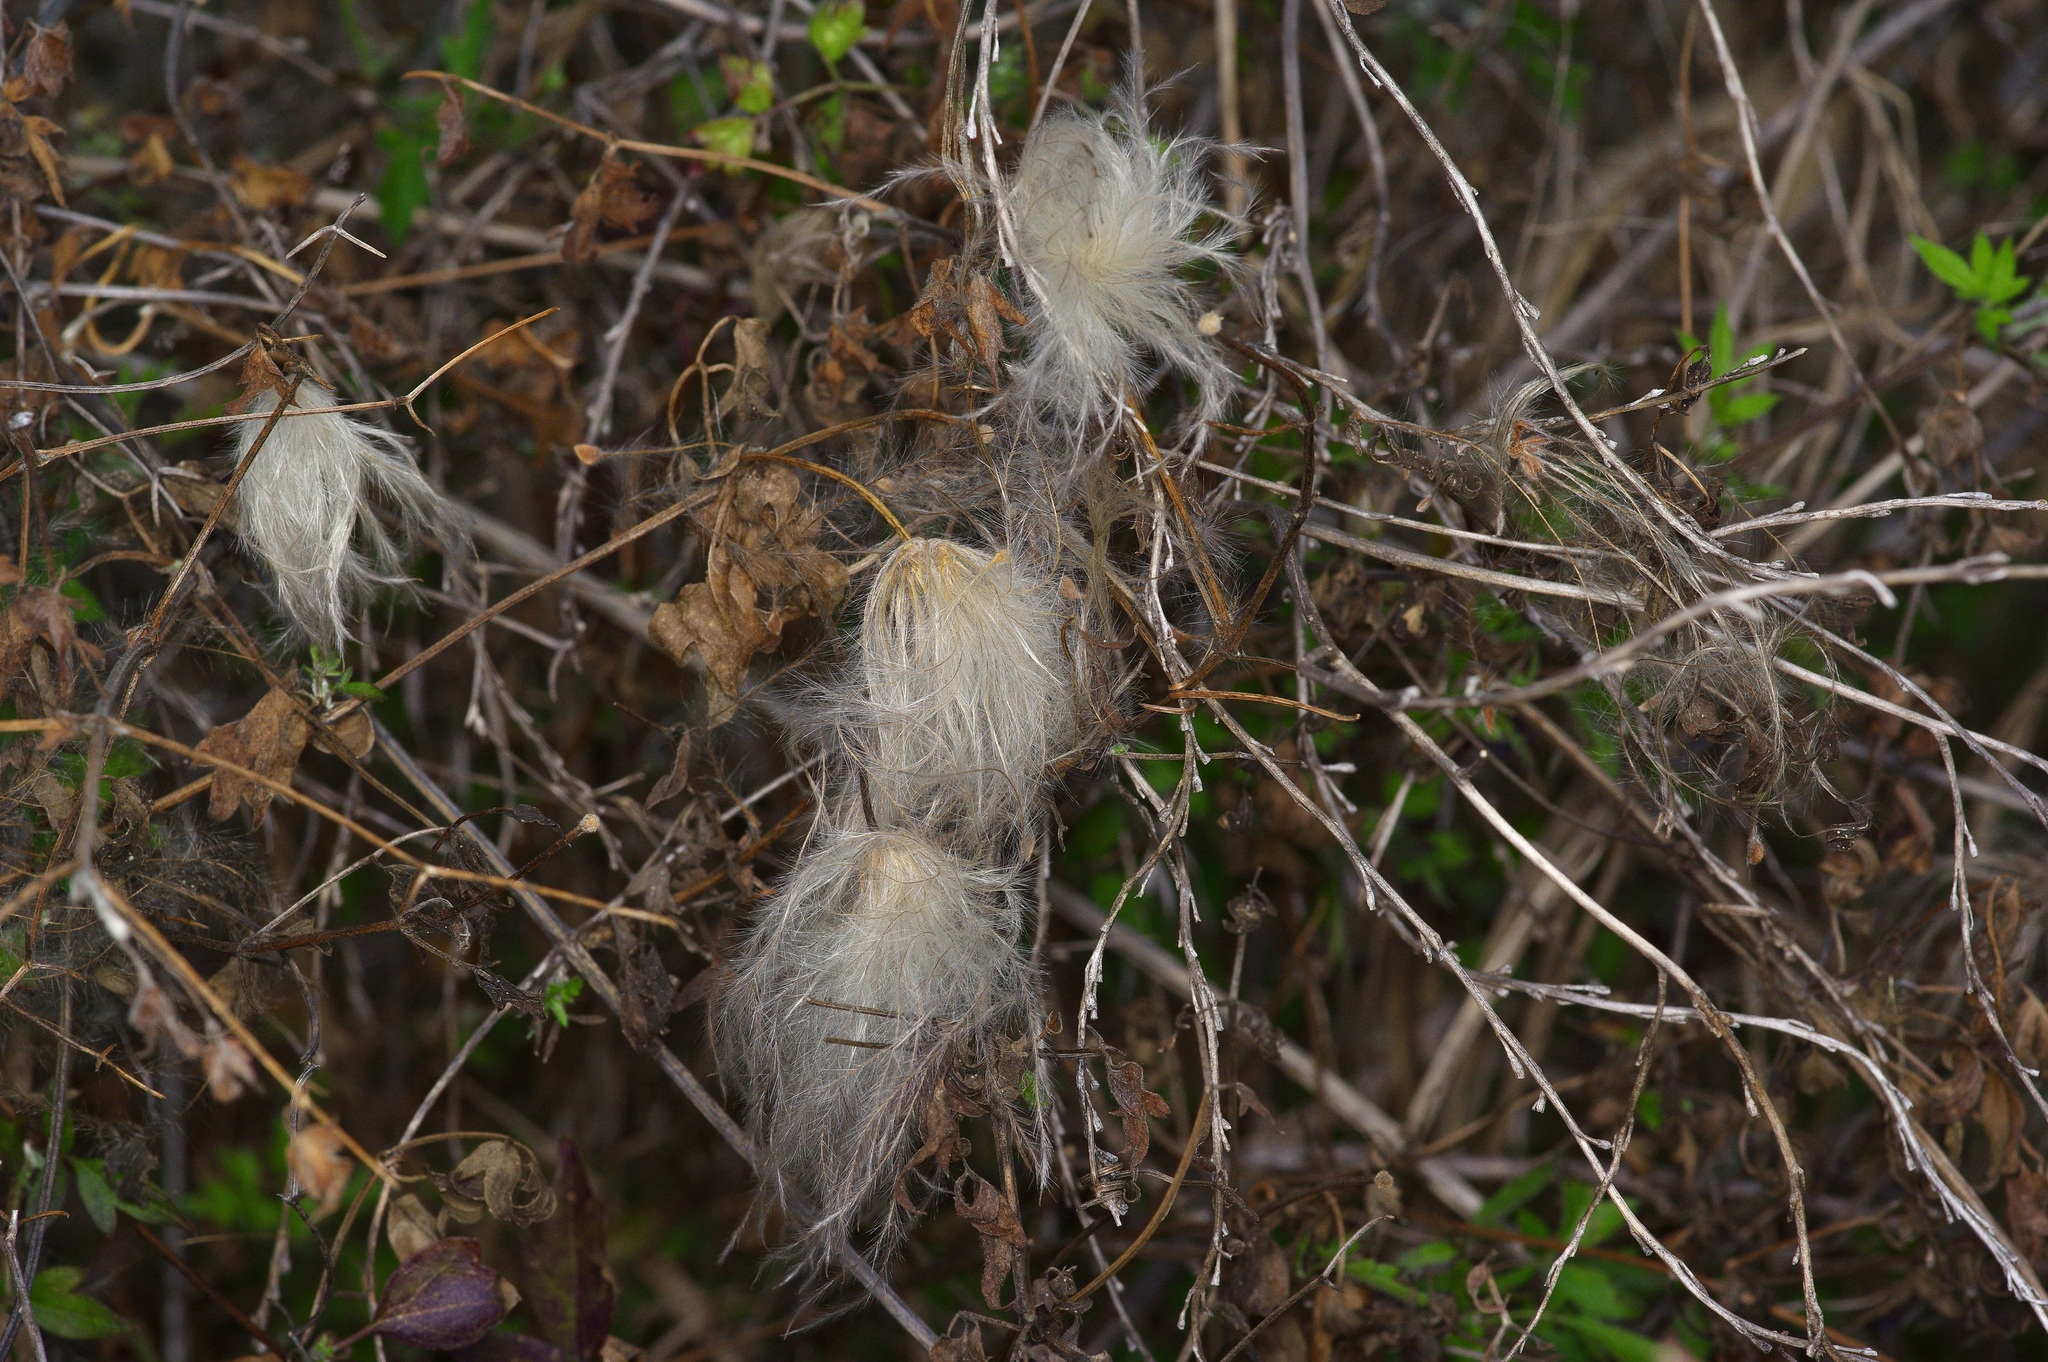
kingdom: Plantae
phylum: Tracheophyta
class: Magnoliopsida
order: Ranunculales
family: Ranunculaceae
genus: Clematis
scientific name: Clematis drummondii
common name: Texas virgin's bower
